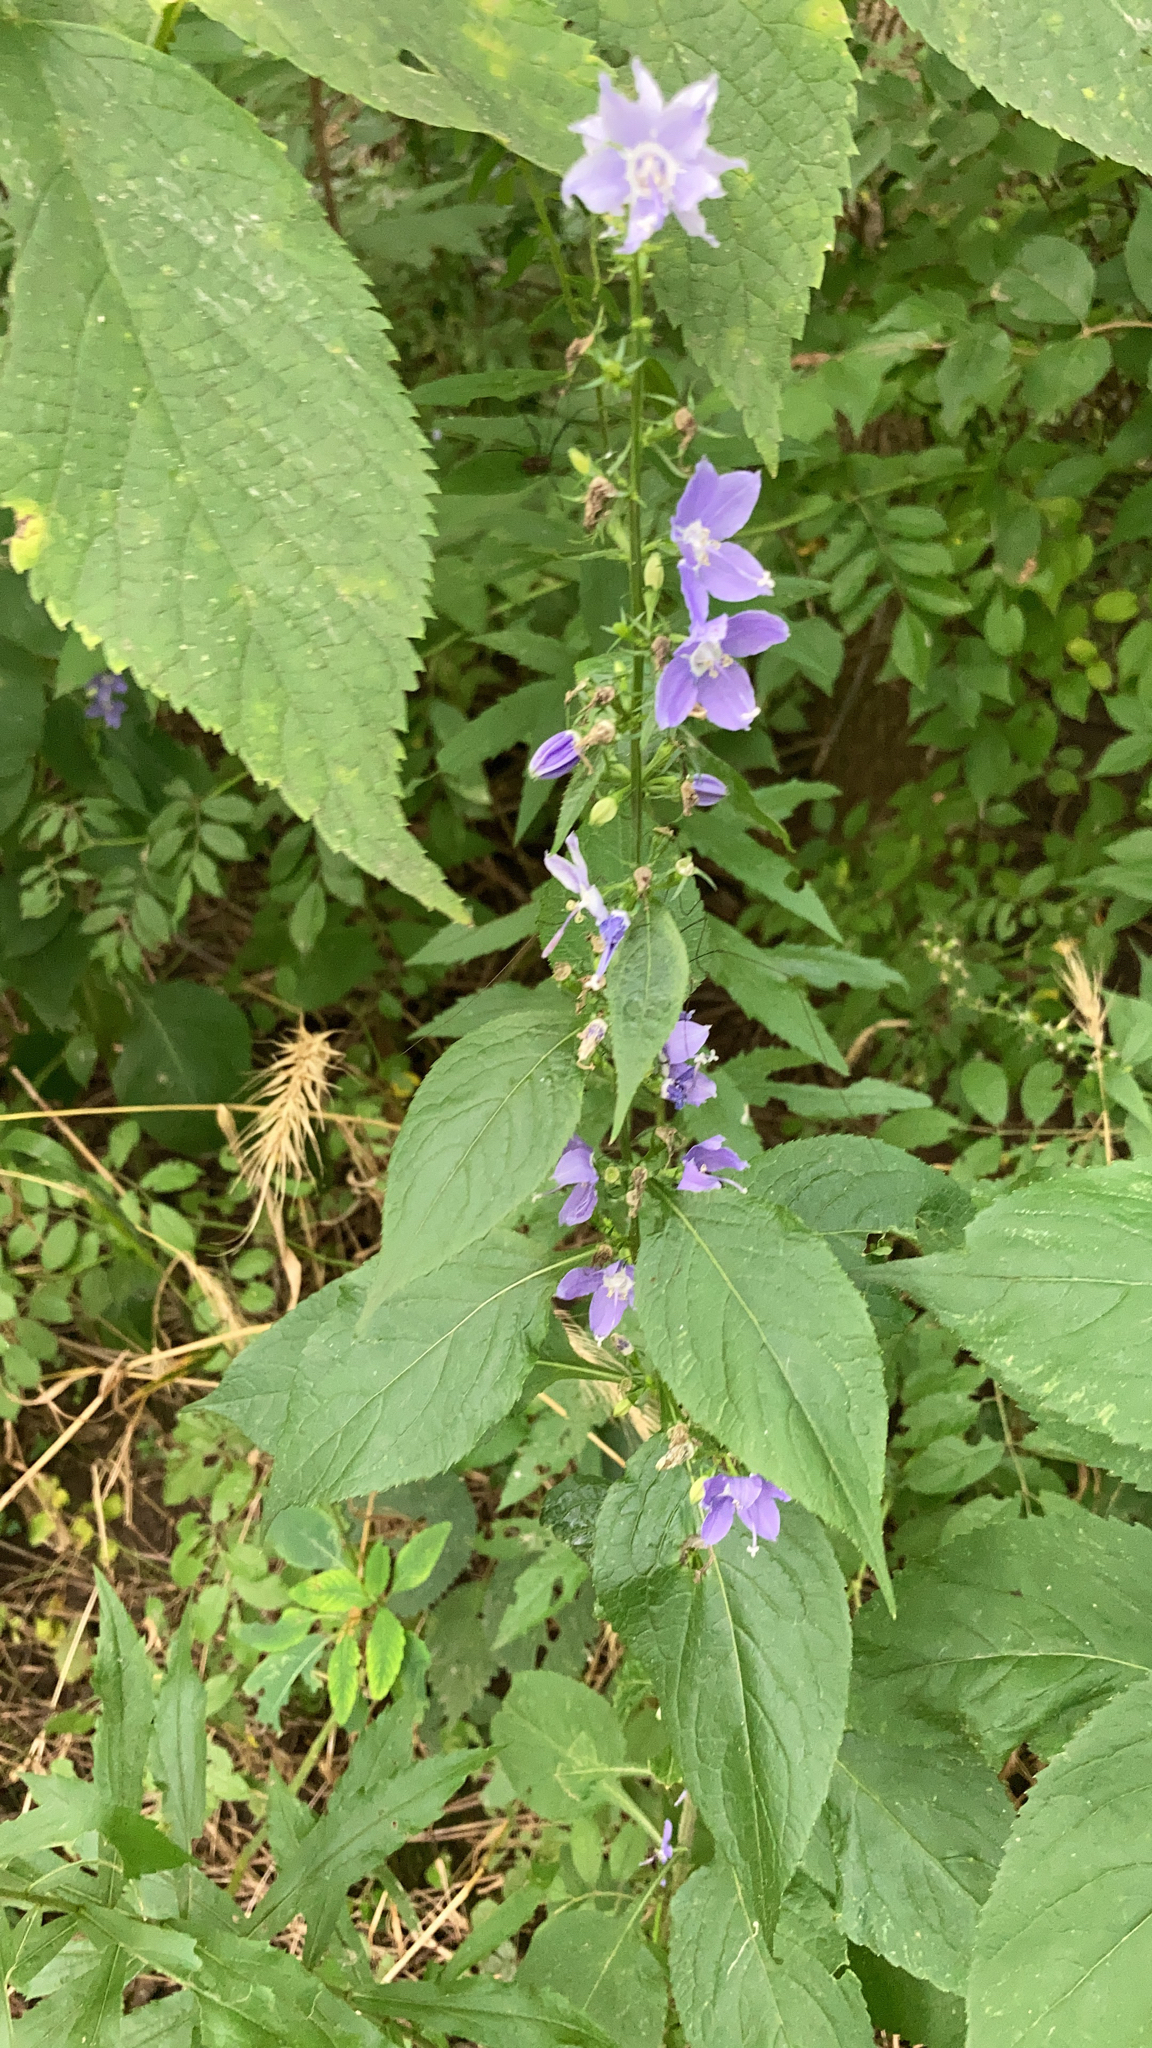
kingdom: Plantae
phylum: Tracheophyta
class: Magnoliopsida
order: Asterales
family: Campanulaceae
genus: Campanulastrum
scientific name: Campanulastrum americanum
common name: American bellflower
